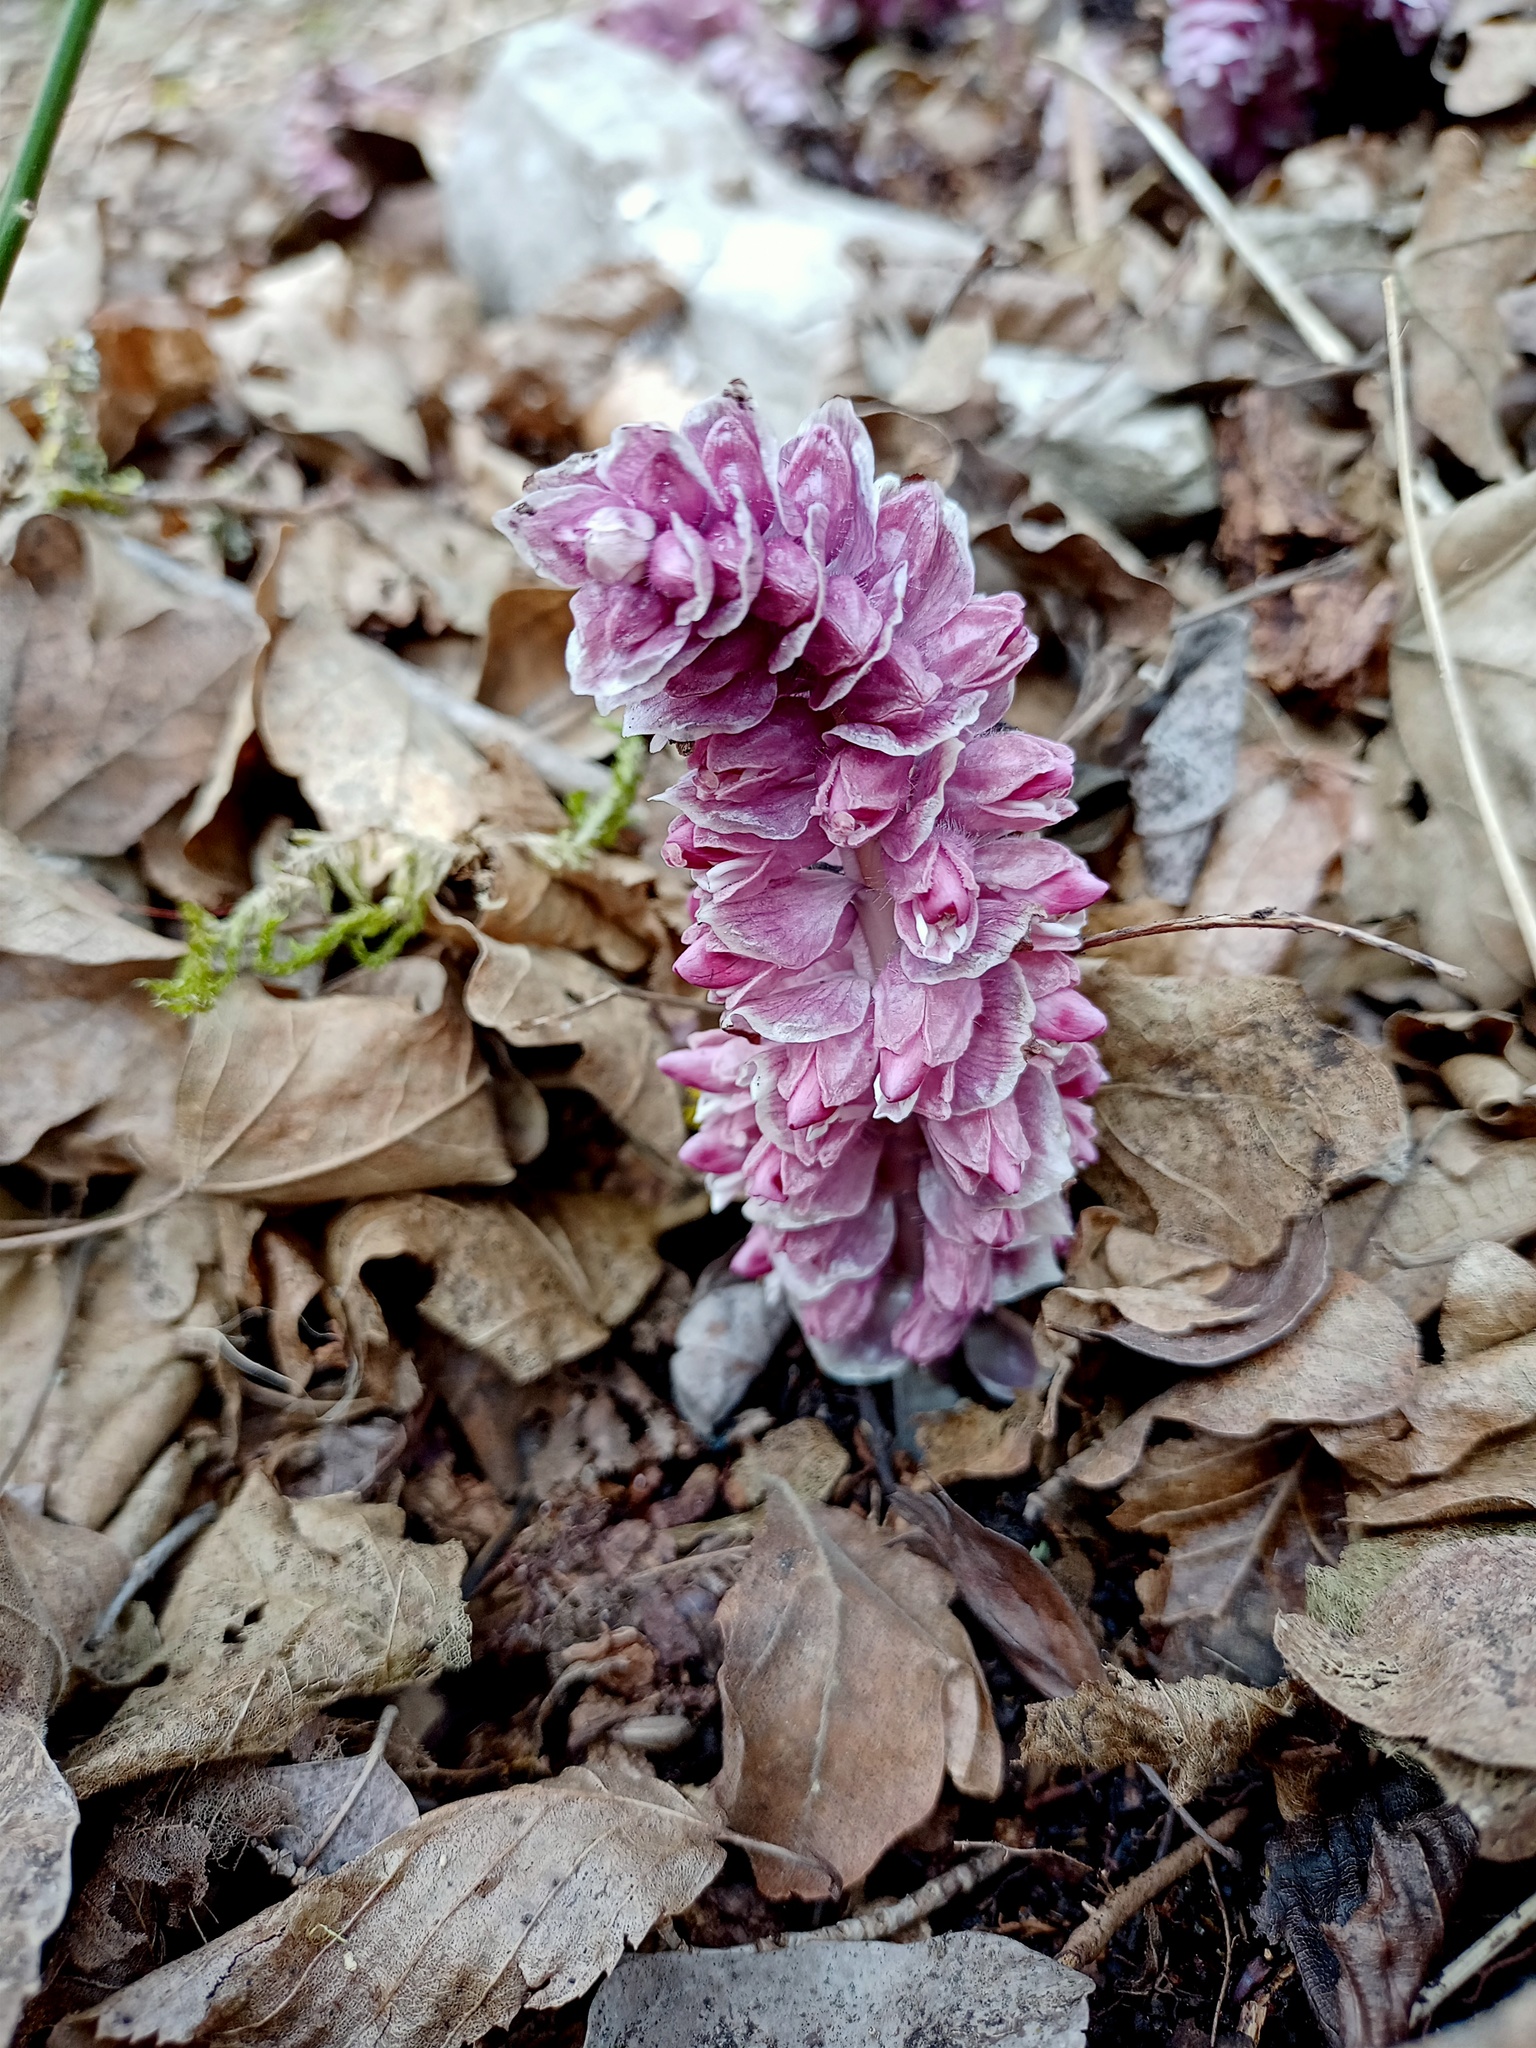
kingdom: Plantae
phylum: Tracheophyta
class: Magnoliopsida
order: Lamiales
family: Orobanchaceae
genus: Lathraea
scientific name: Lathraea squamaria
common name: Toothwort
